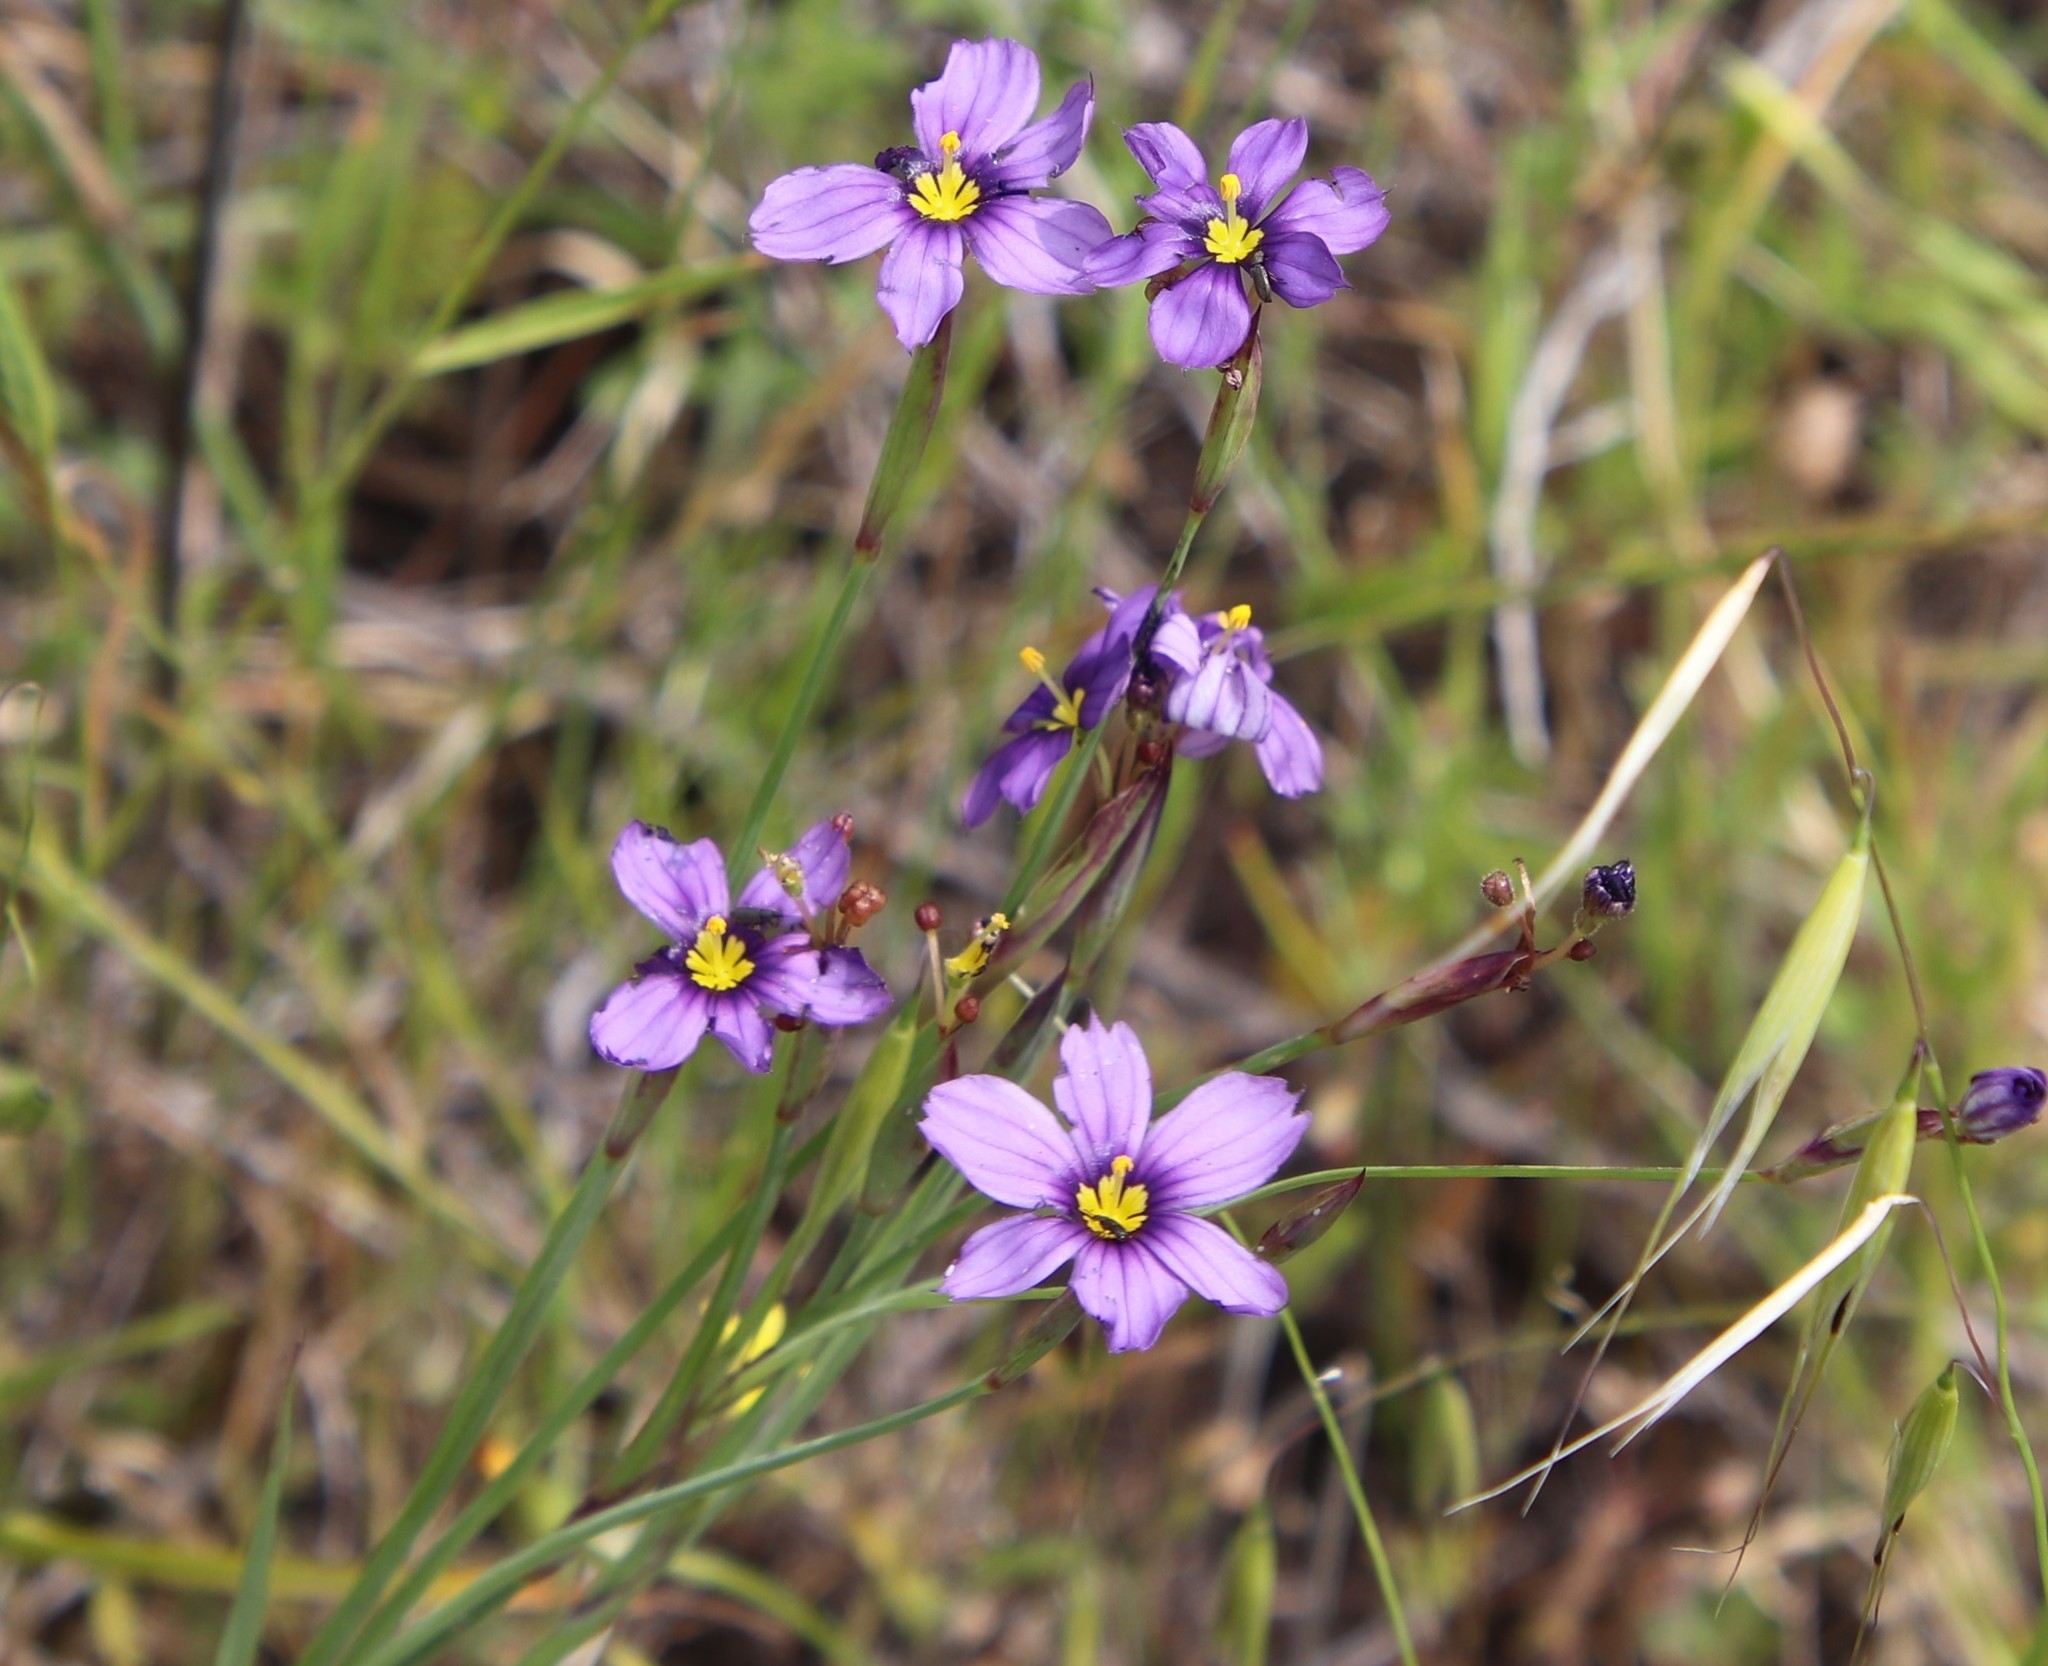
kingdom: Plantae
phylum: Tracheophyta
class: Liliopsida
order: Asparagales
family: Iridaceae
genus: Sisyrinchium
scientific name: Sisyrinchium bellum
